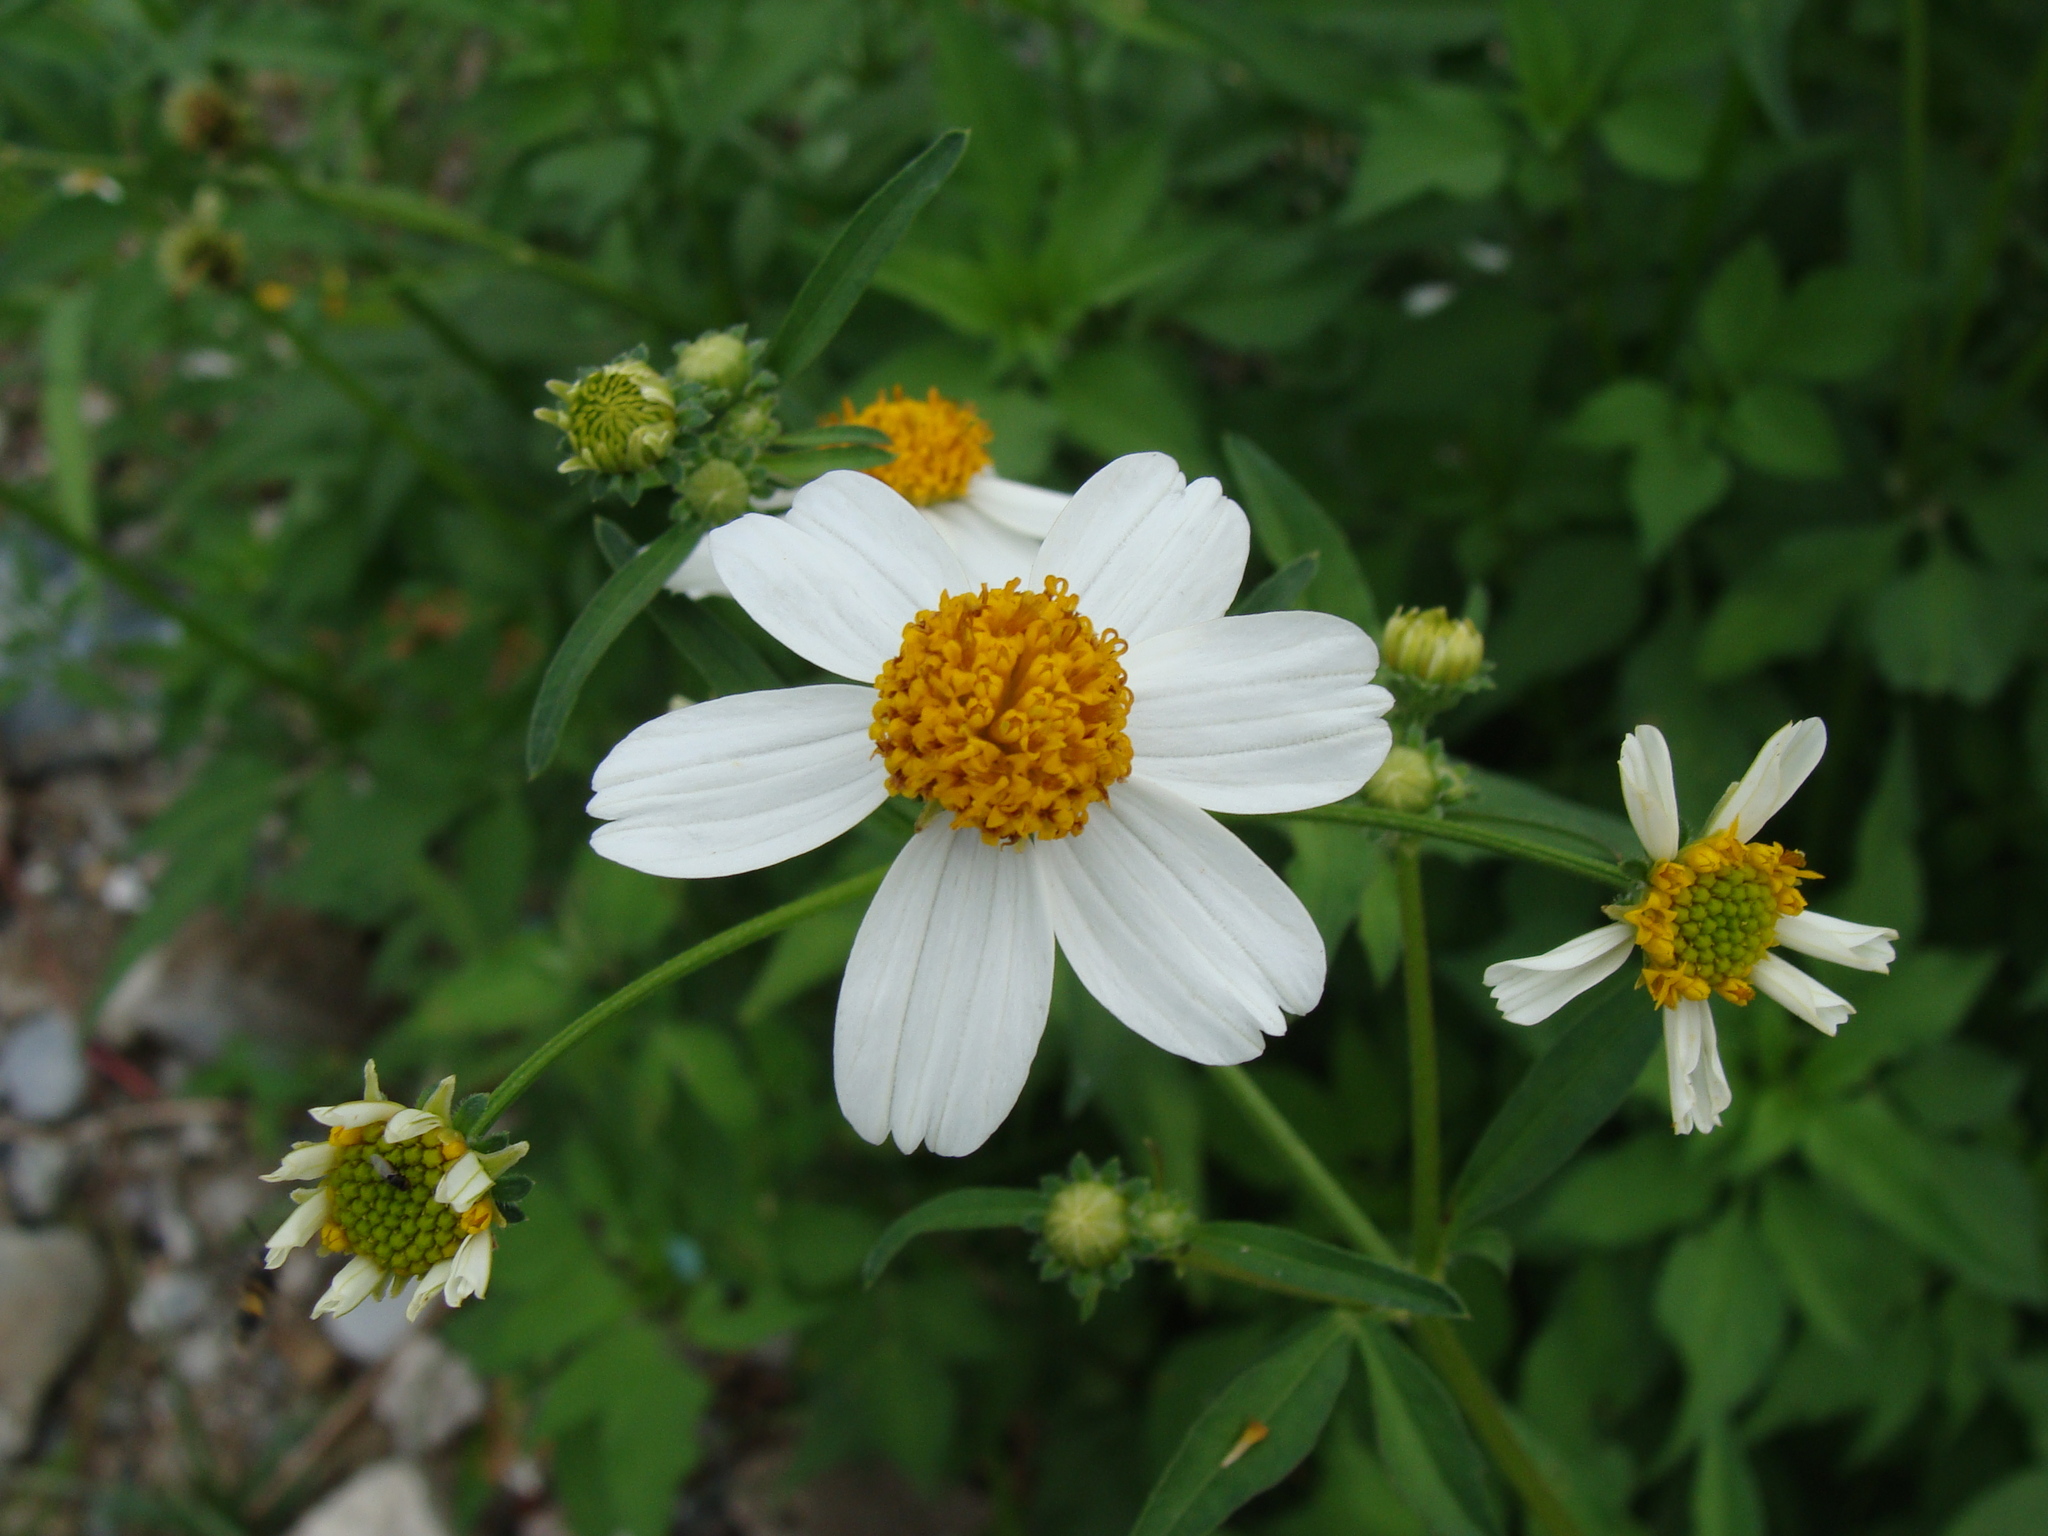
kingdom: Plantae
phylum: Tracheophyta
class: Magnoliopsida
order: Asterales
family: Asteraceae
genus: Bidens
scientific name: Bidens alba
